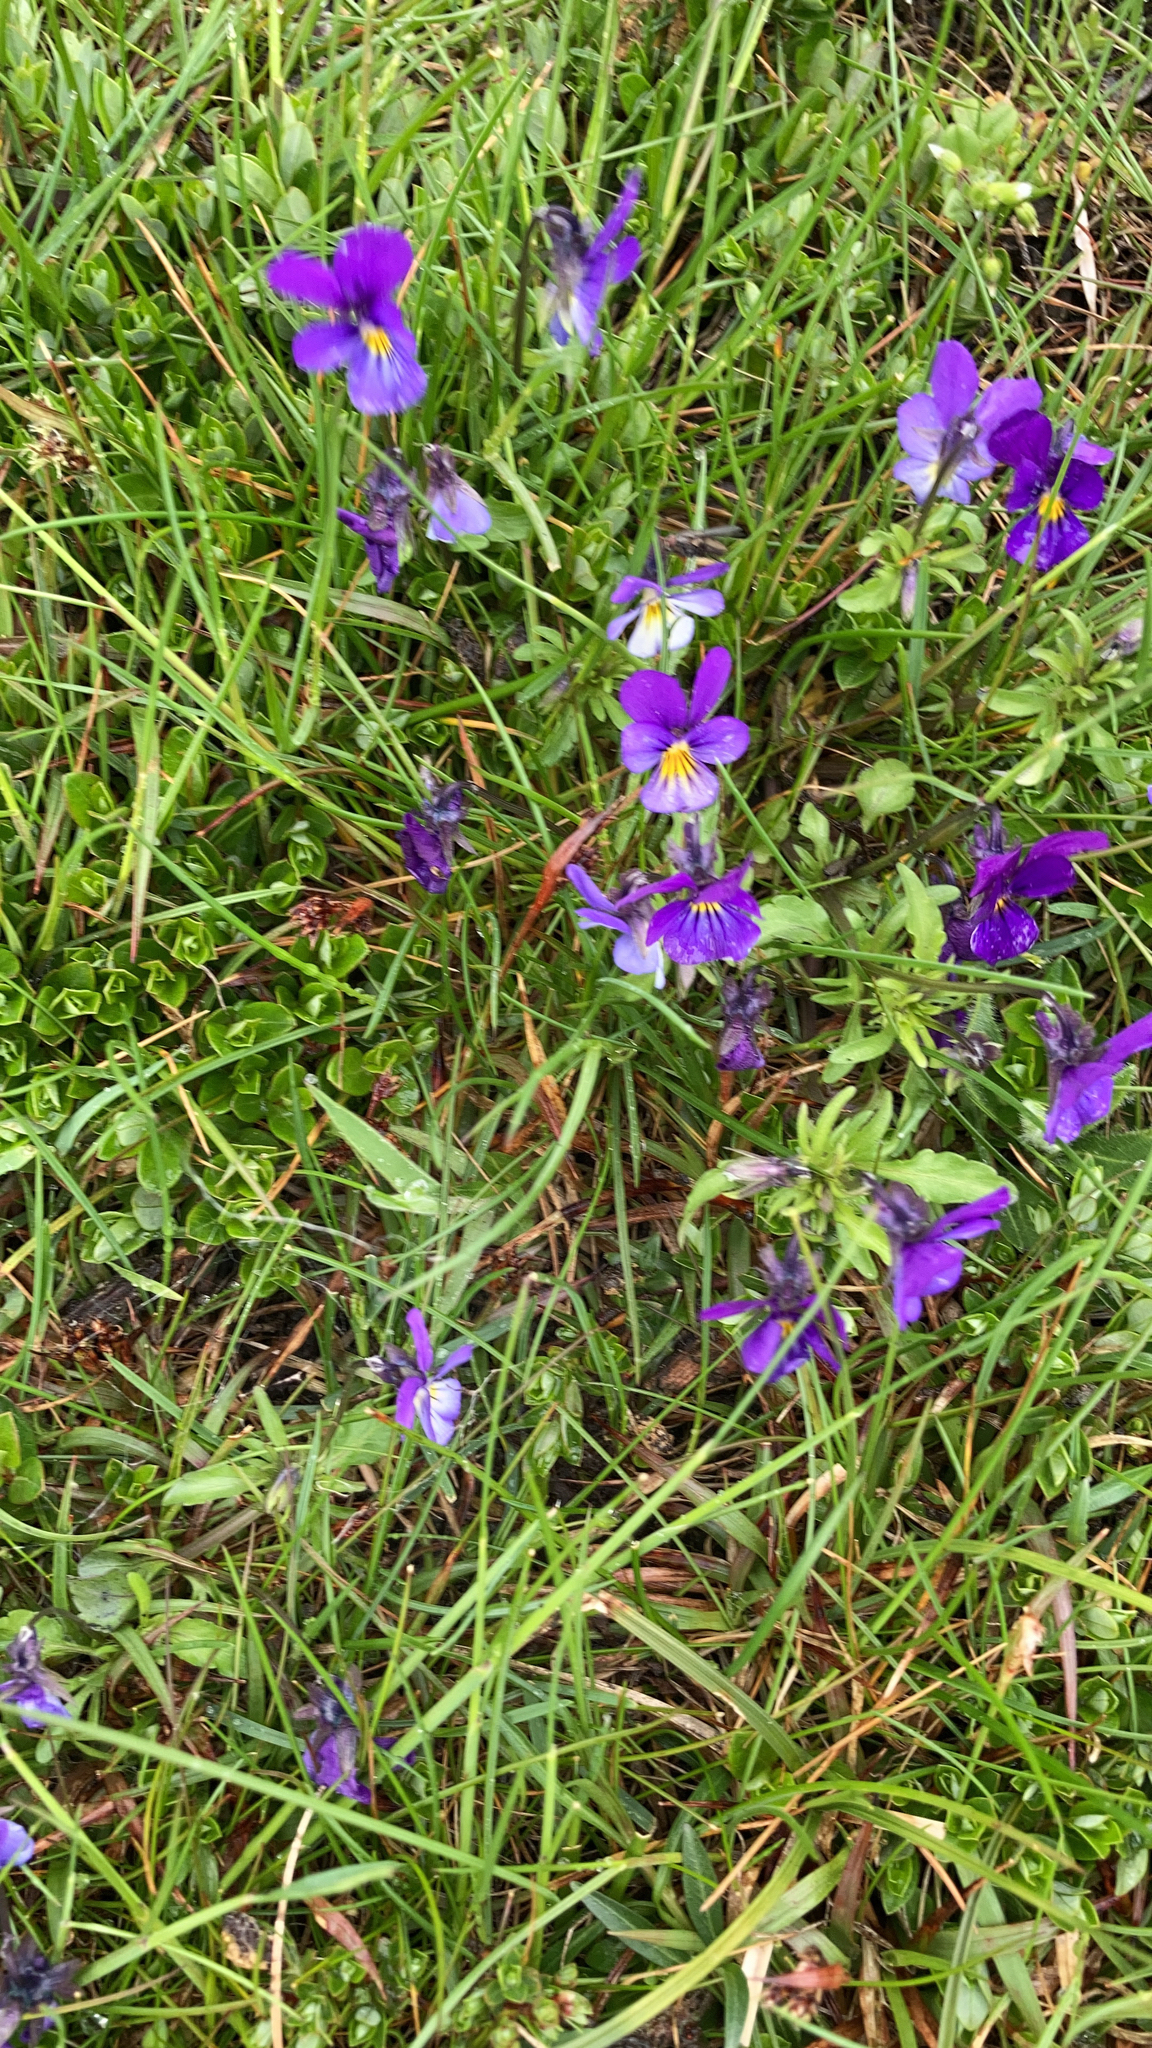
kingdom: Plantae
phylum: Tracheophyta
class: Magnoliopsida
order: Malpighiales
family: Violaceae
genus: Viola
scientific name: Viola tricolor
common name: Pansy
